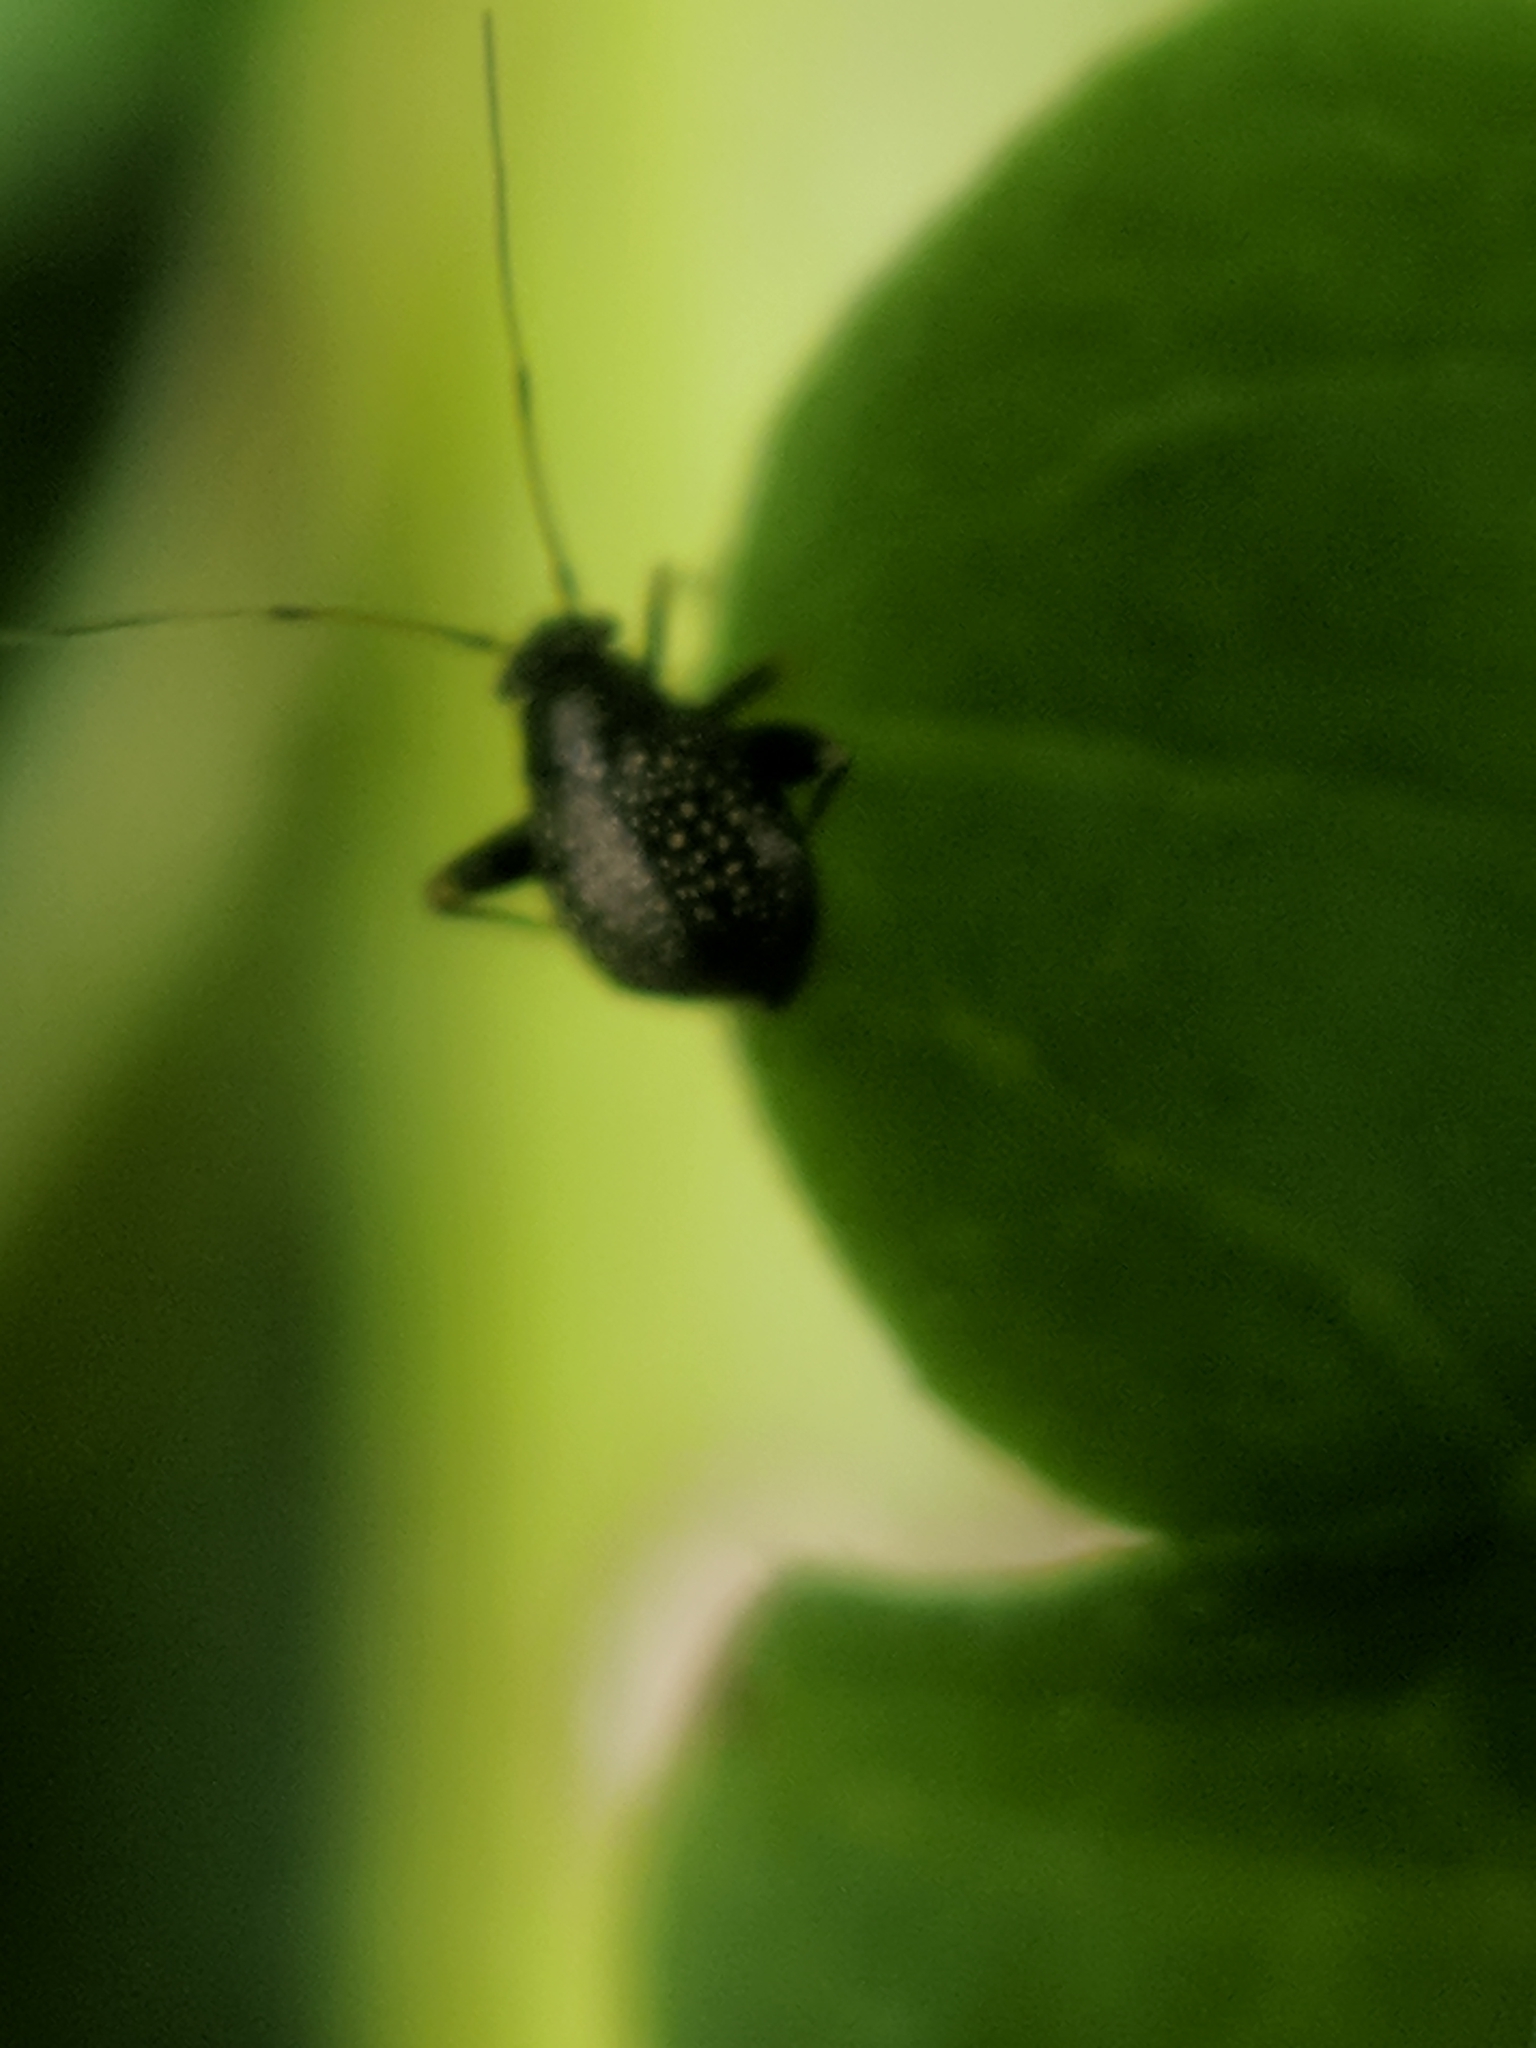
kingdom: Animalia
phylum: Arthropoda
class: Insecta
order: Hemiptera
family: Miridae
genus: Microtechnites
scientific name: Microtechnites bractatus
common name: Garden fleahopper
